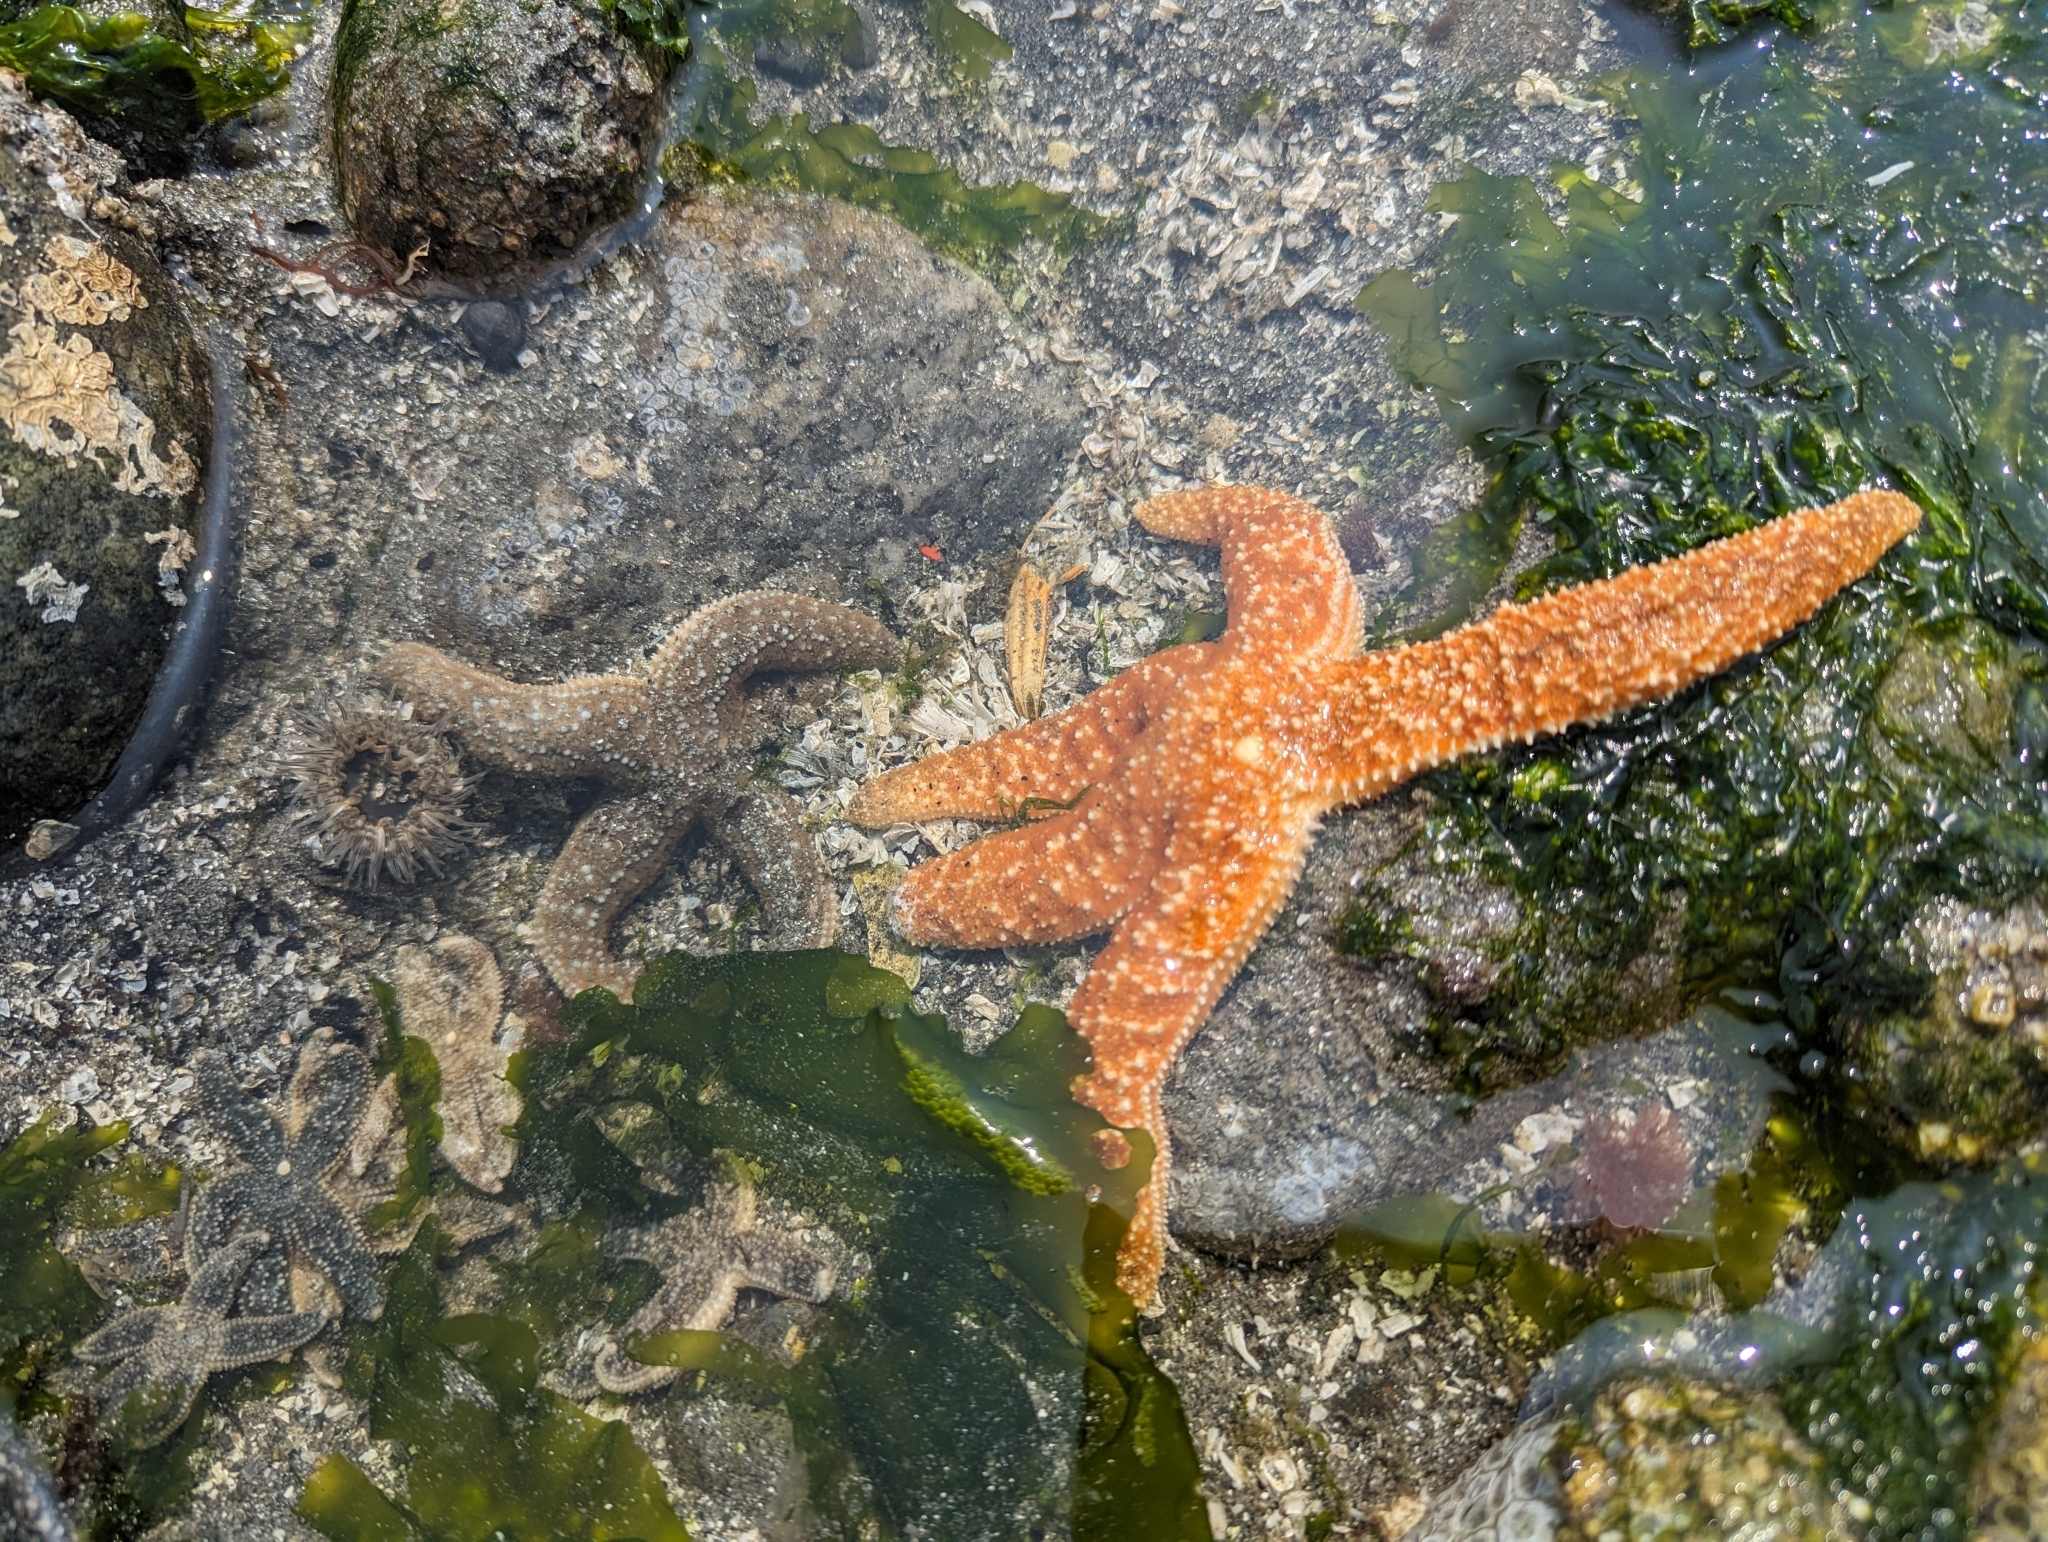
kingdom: Animalia
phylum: Echinodermata
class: Asteroidea
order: Forcipulatida
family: Asteriidae
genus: Evasterias
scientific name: Evasterias troschelii
